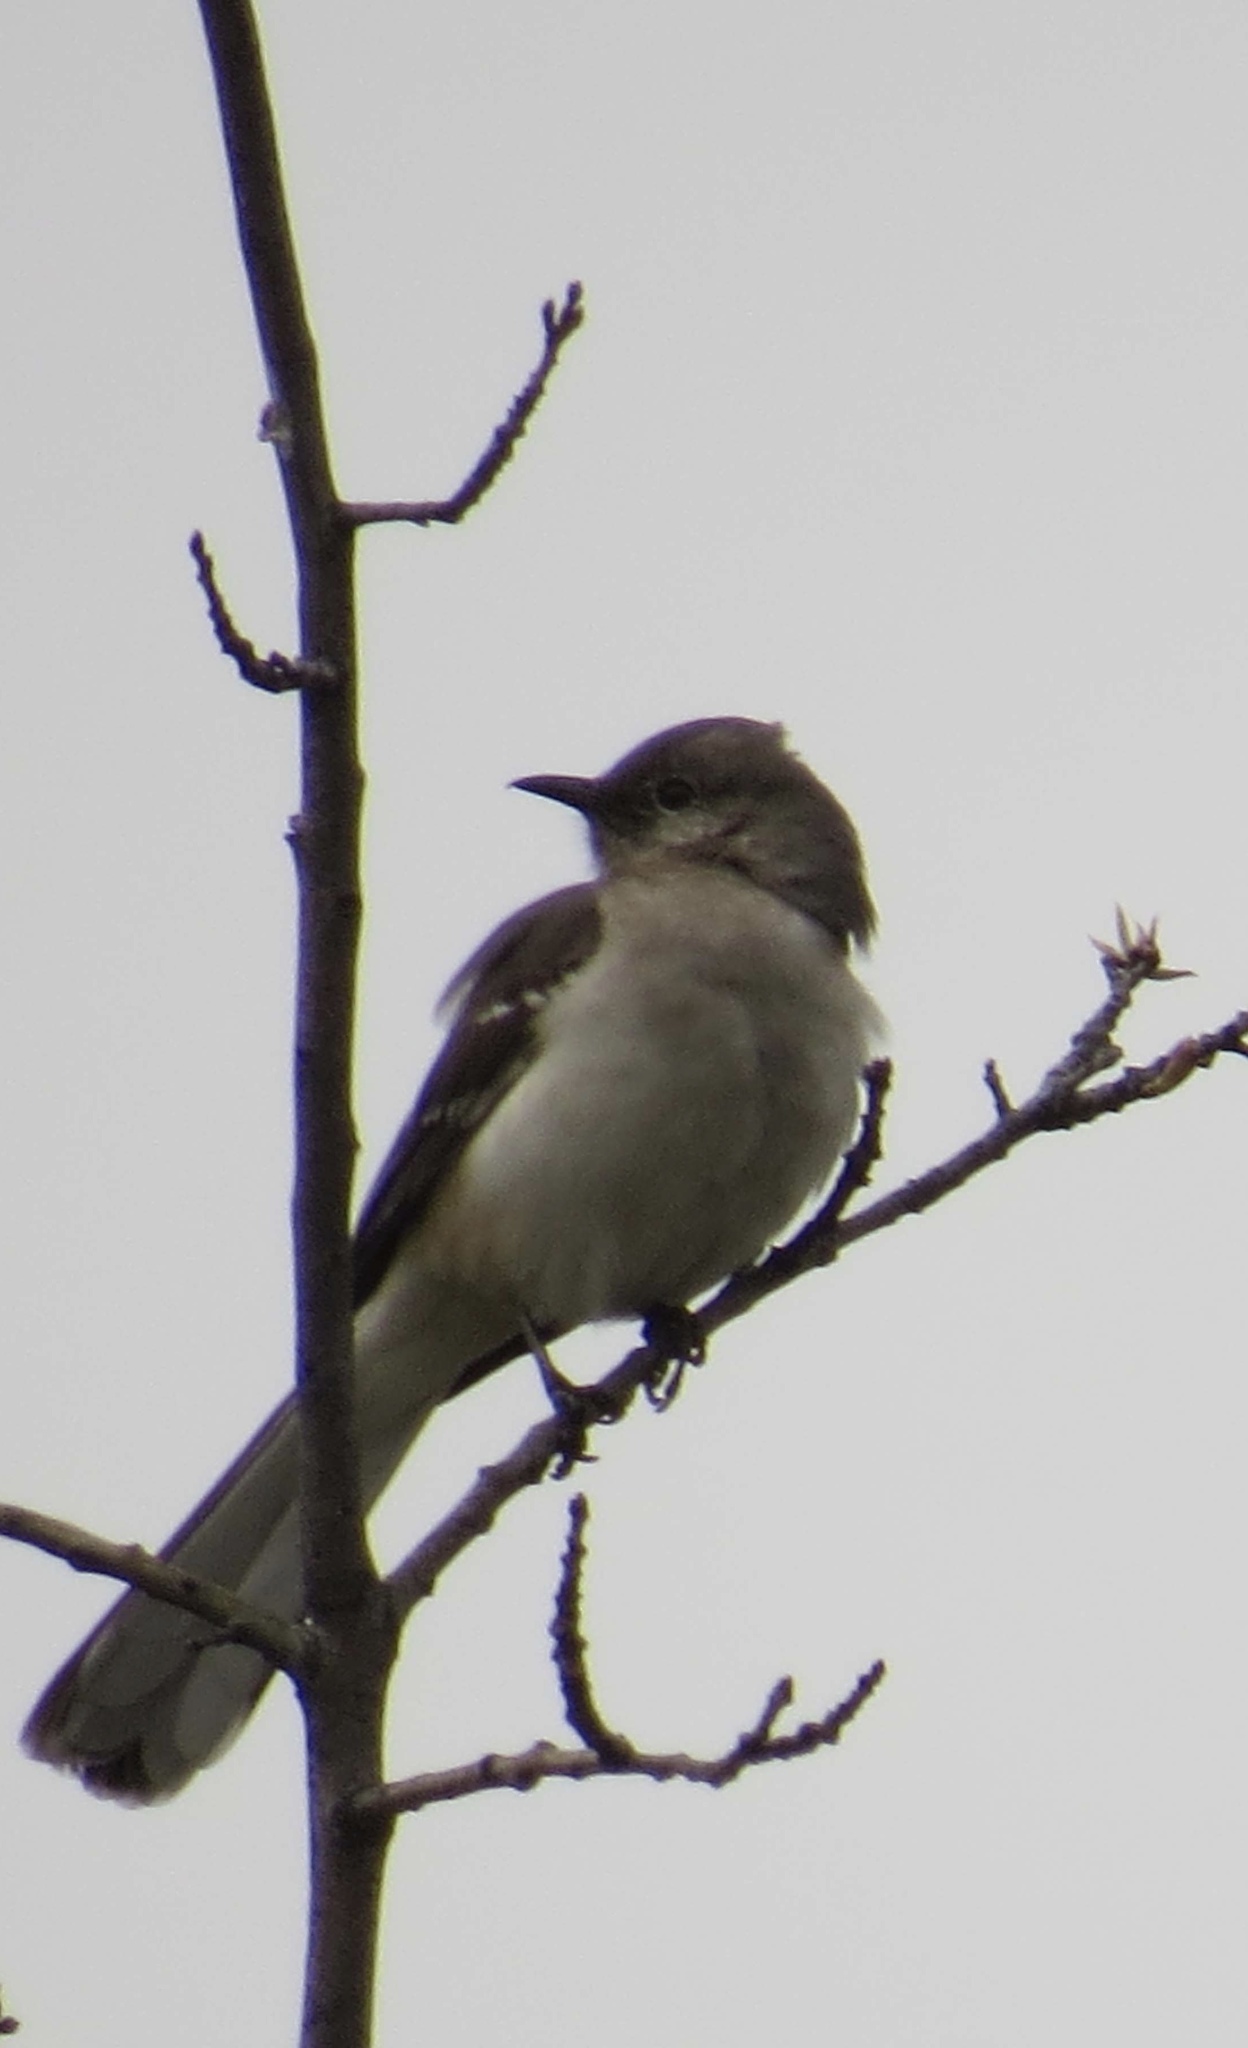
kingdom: Animalia
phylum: Chordata
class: Aves
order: Passeriformes
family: Mimidae
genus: Mimus
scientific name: Mimus polyglottos
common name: Northern mockingbird
